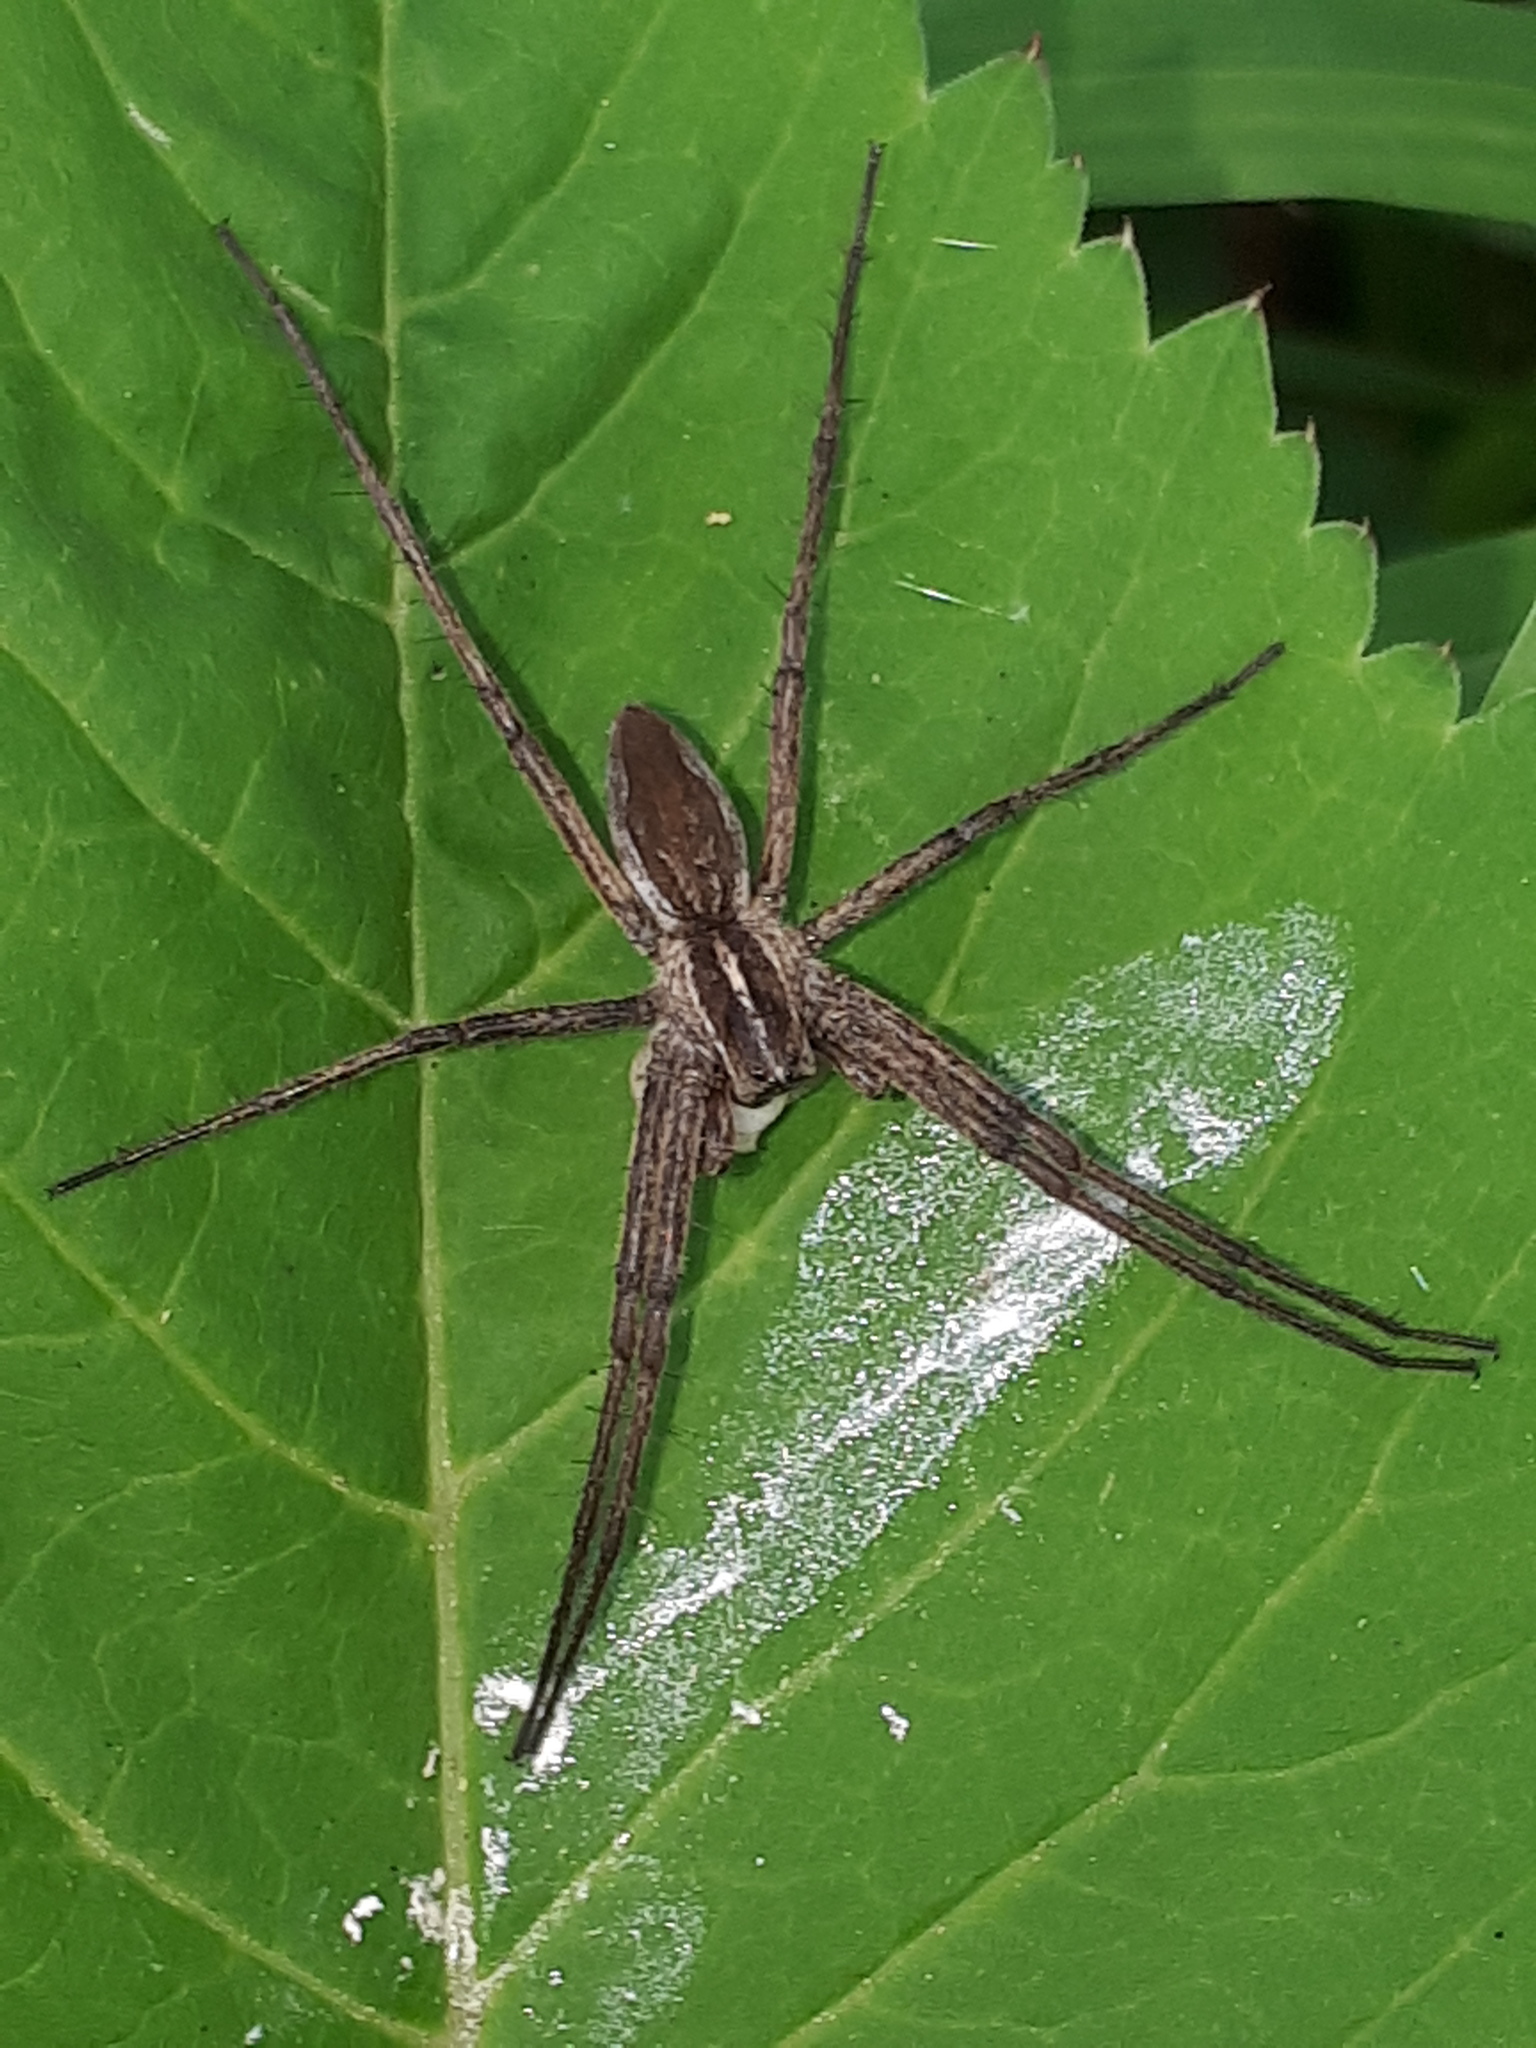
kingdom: Animalia
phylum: Arthropoda
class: Arachnida
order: Araneae
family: Pisauridae
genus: Pisaura
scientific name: Pisaura mirabilis
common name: Tent spider
